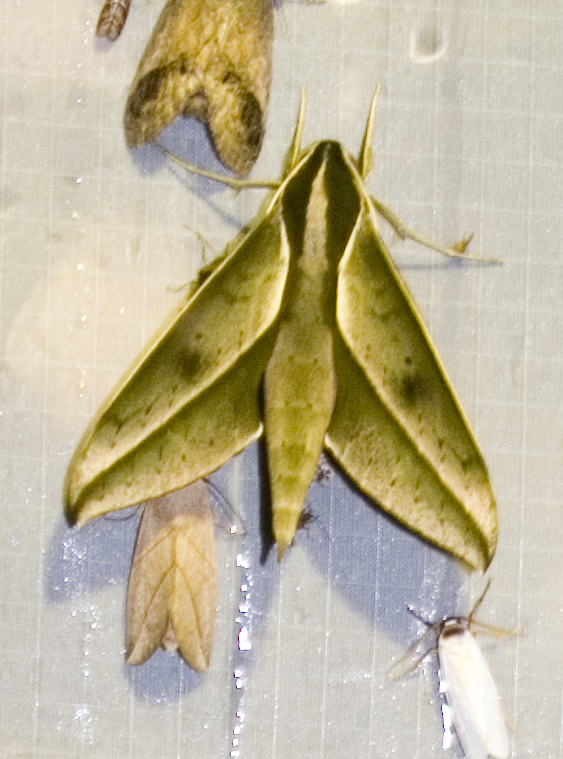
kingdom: Animalia
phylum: Arthropoda
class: Insecta
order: Lepidoptera
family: Sphingidae
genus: Xylophanes
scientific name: Xylophanes amadis
